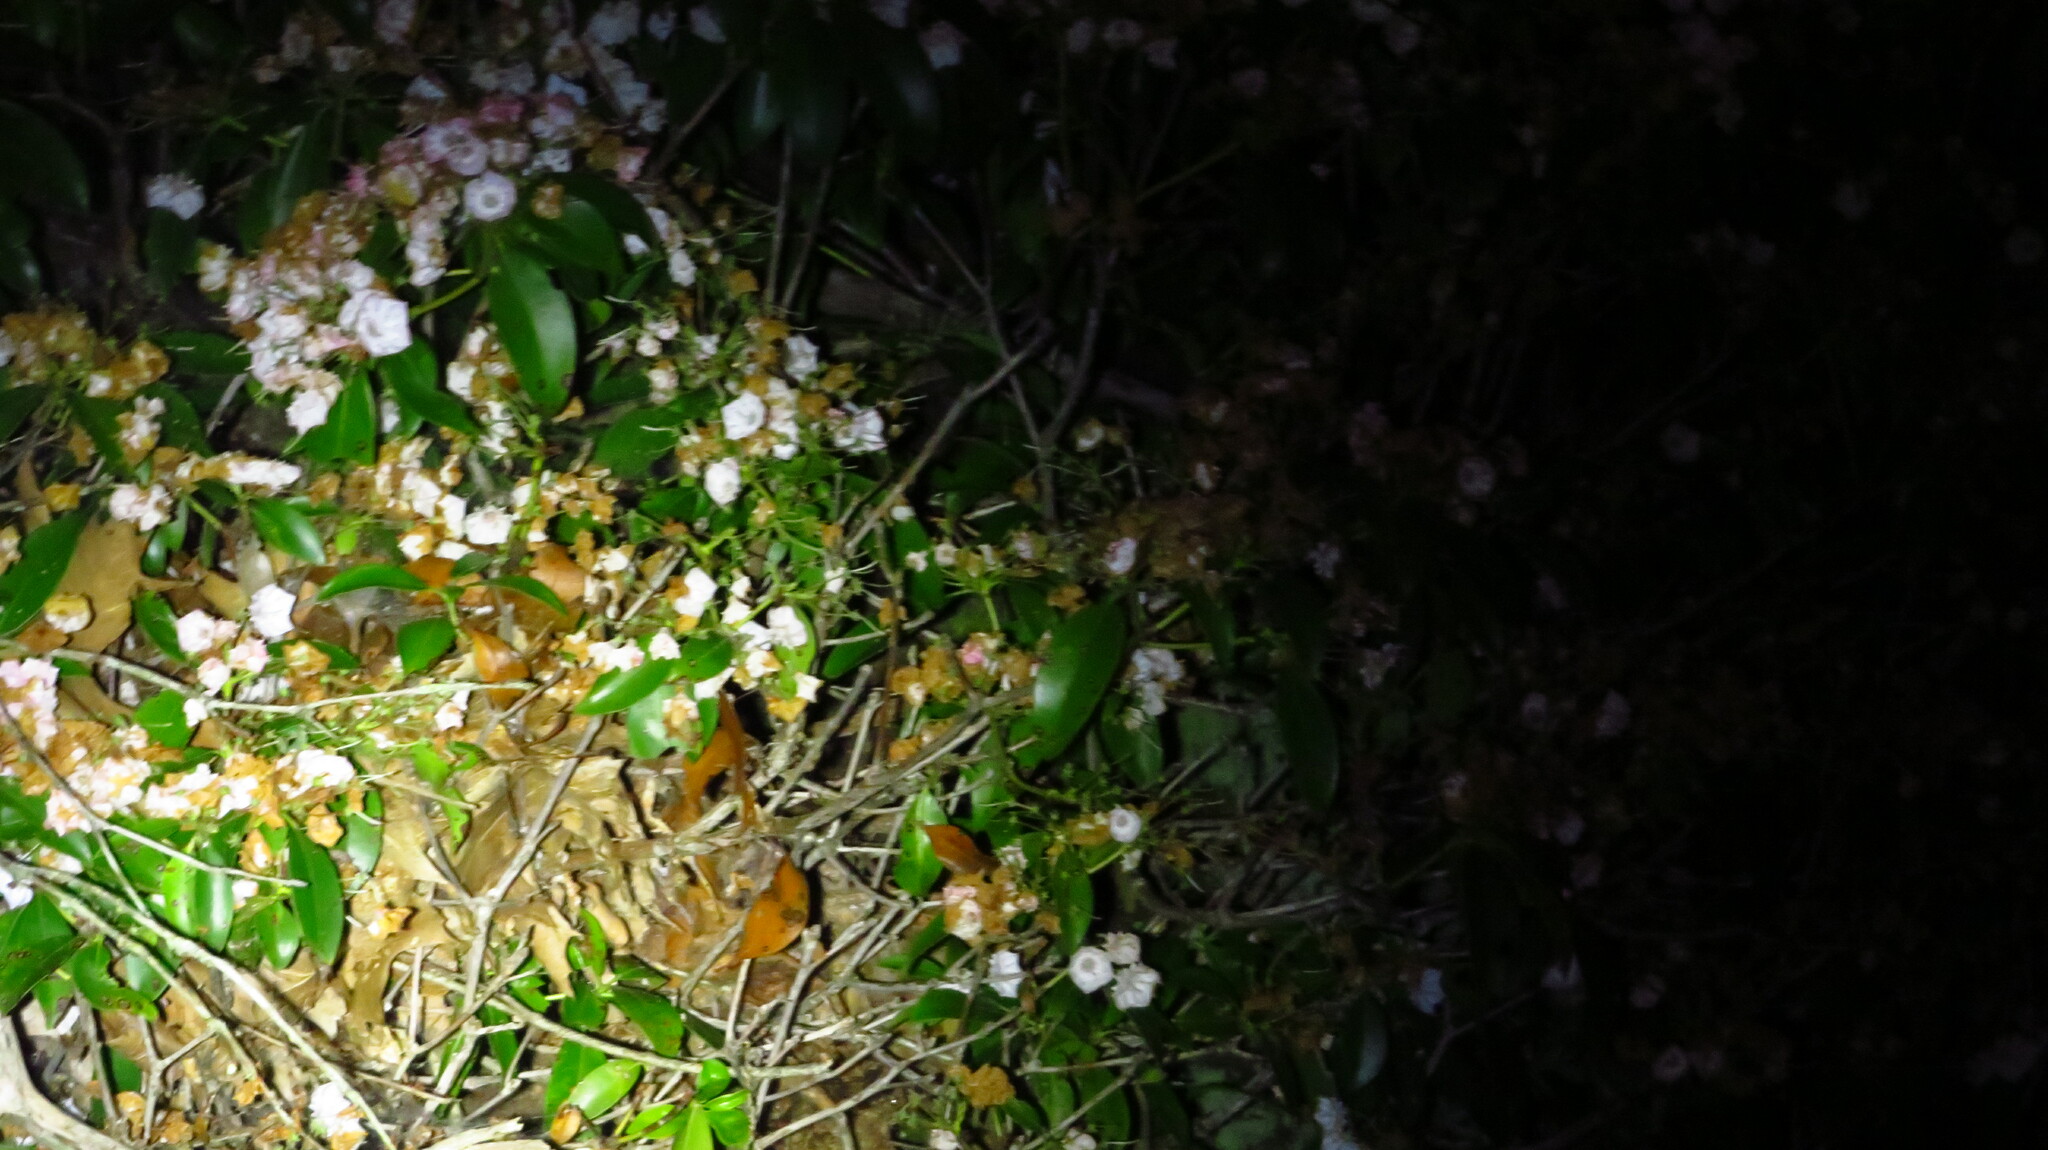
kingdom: Plantae
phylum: Tracheophyta
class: Magnoliopsida
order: Ericales
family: Ericaceae
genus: Kalmia
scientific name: Kalmia latifolia
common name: Mountain-laurel
